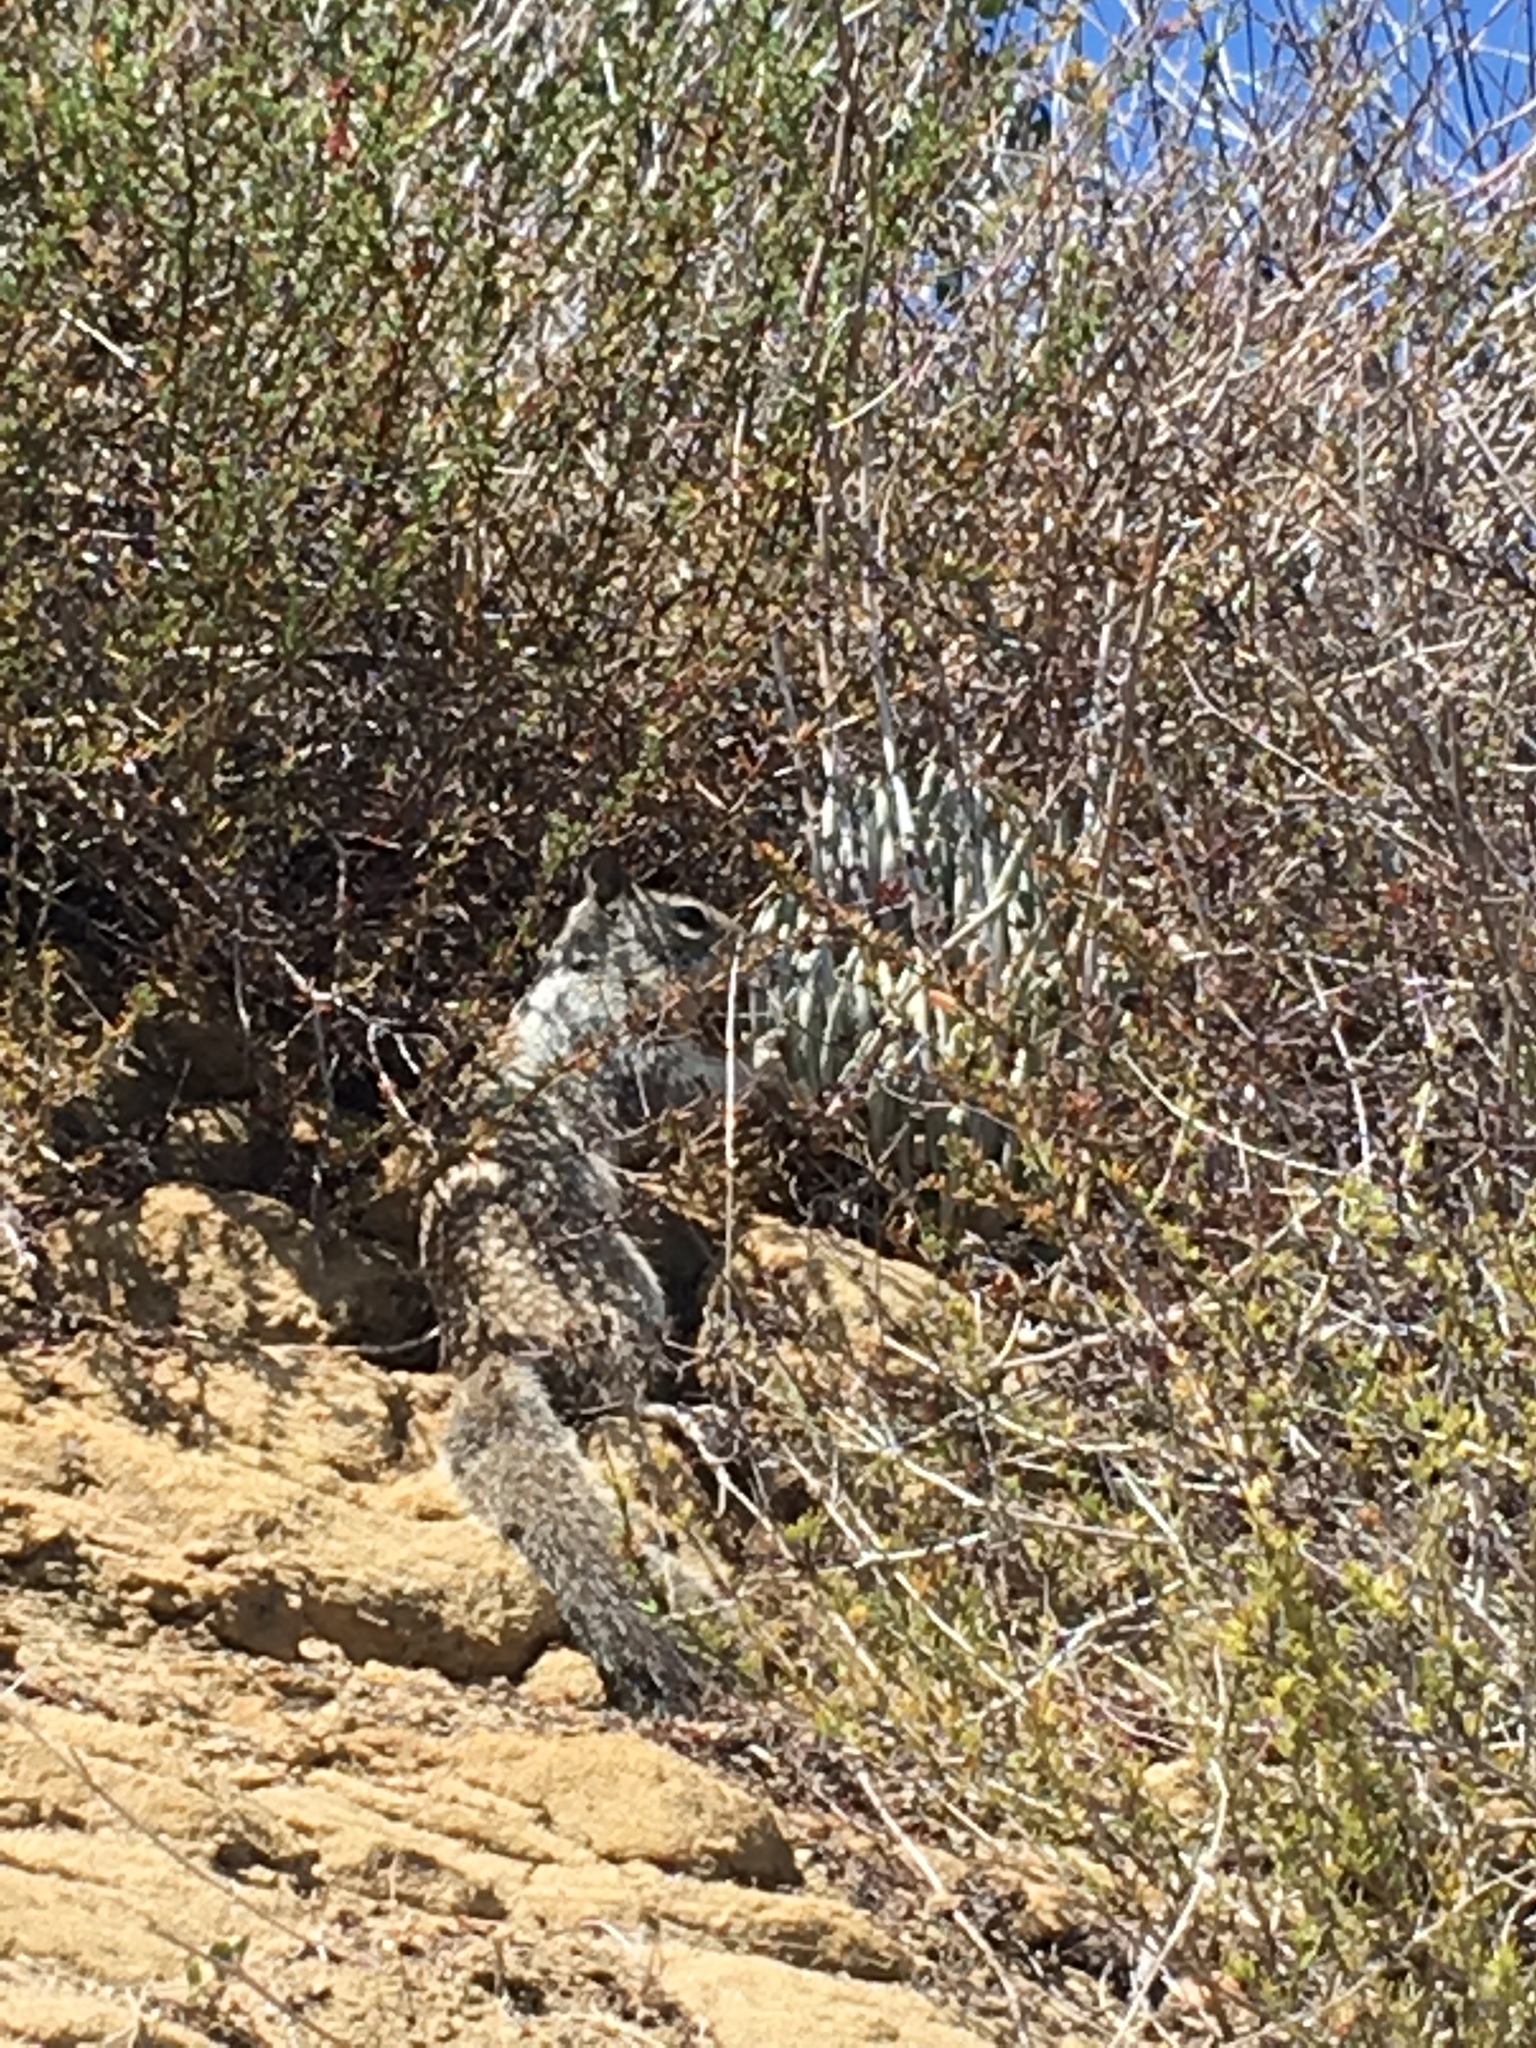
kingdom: Animalia
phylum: Chordata
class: Mammalia
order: Rodentia
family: Sciuridae
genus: Otospermophilus
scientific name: Otospermophilus beecheyi
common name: California ground squirrel
